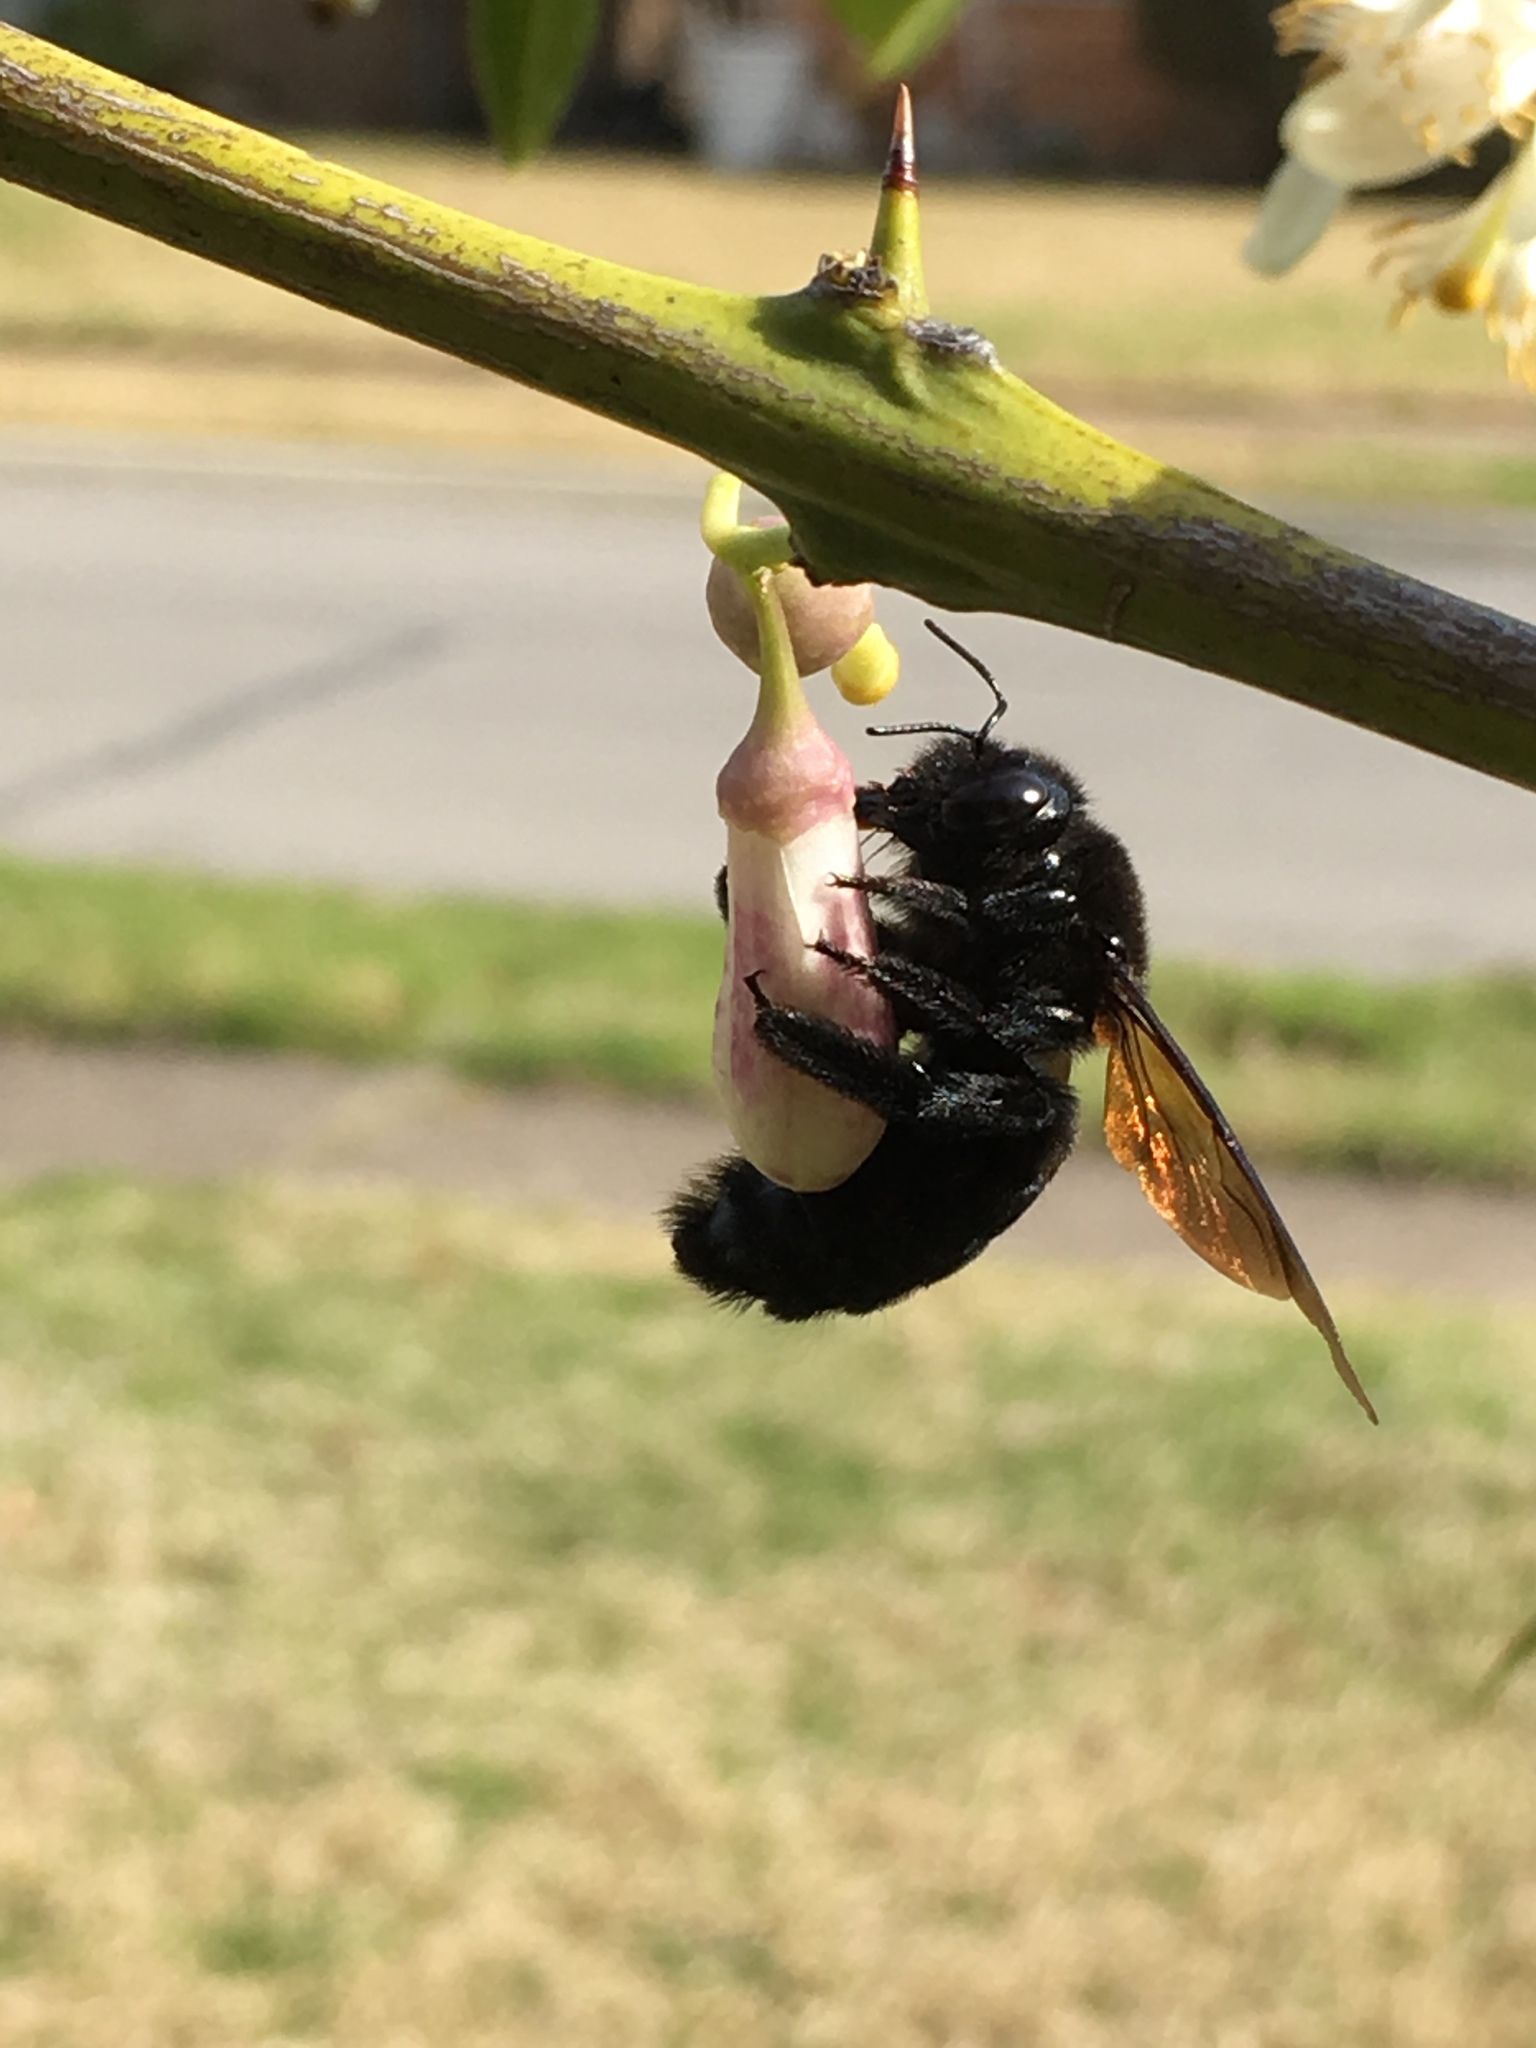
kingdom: Animalia
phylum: Arthropoda
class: Insecta
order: Hymenoptera
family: Apidae
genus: Xylocopa
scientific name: Xylocopa sonorina
